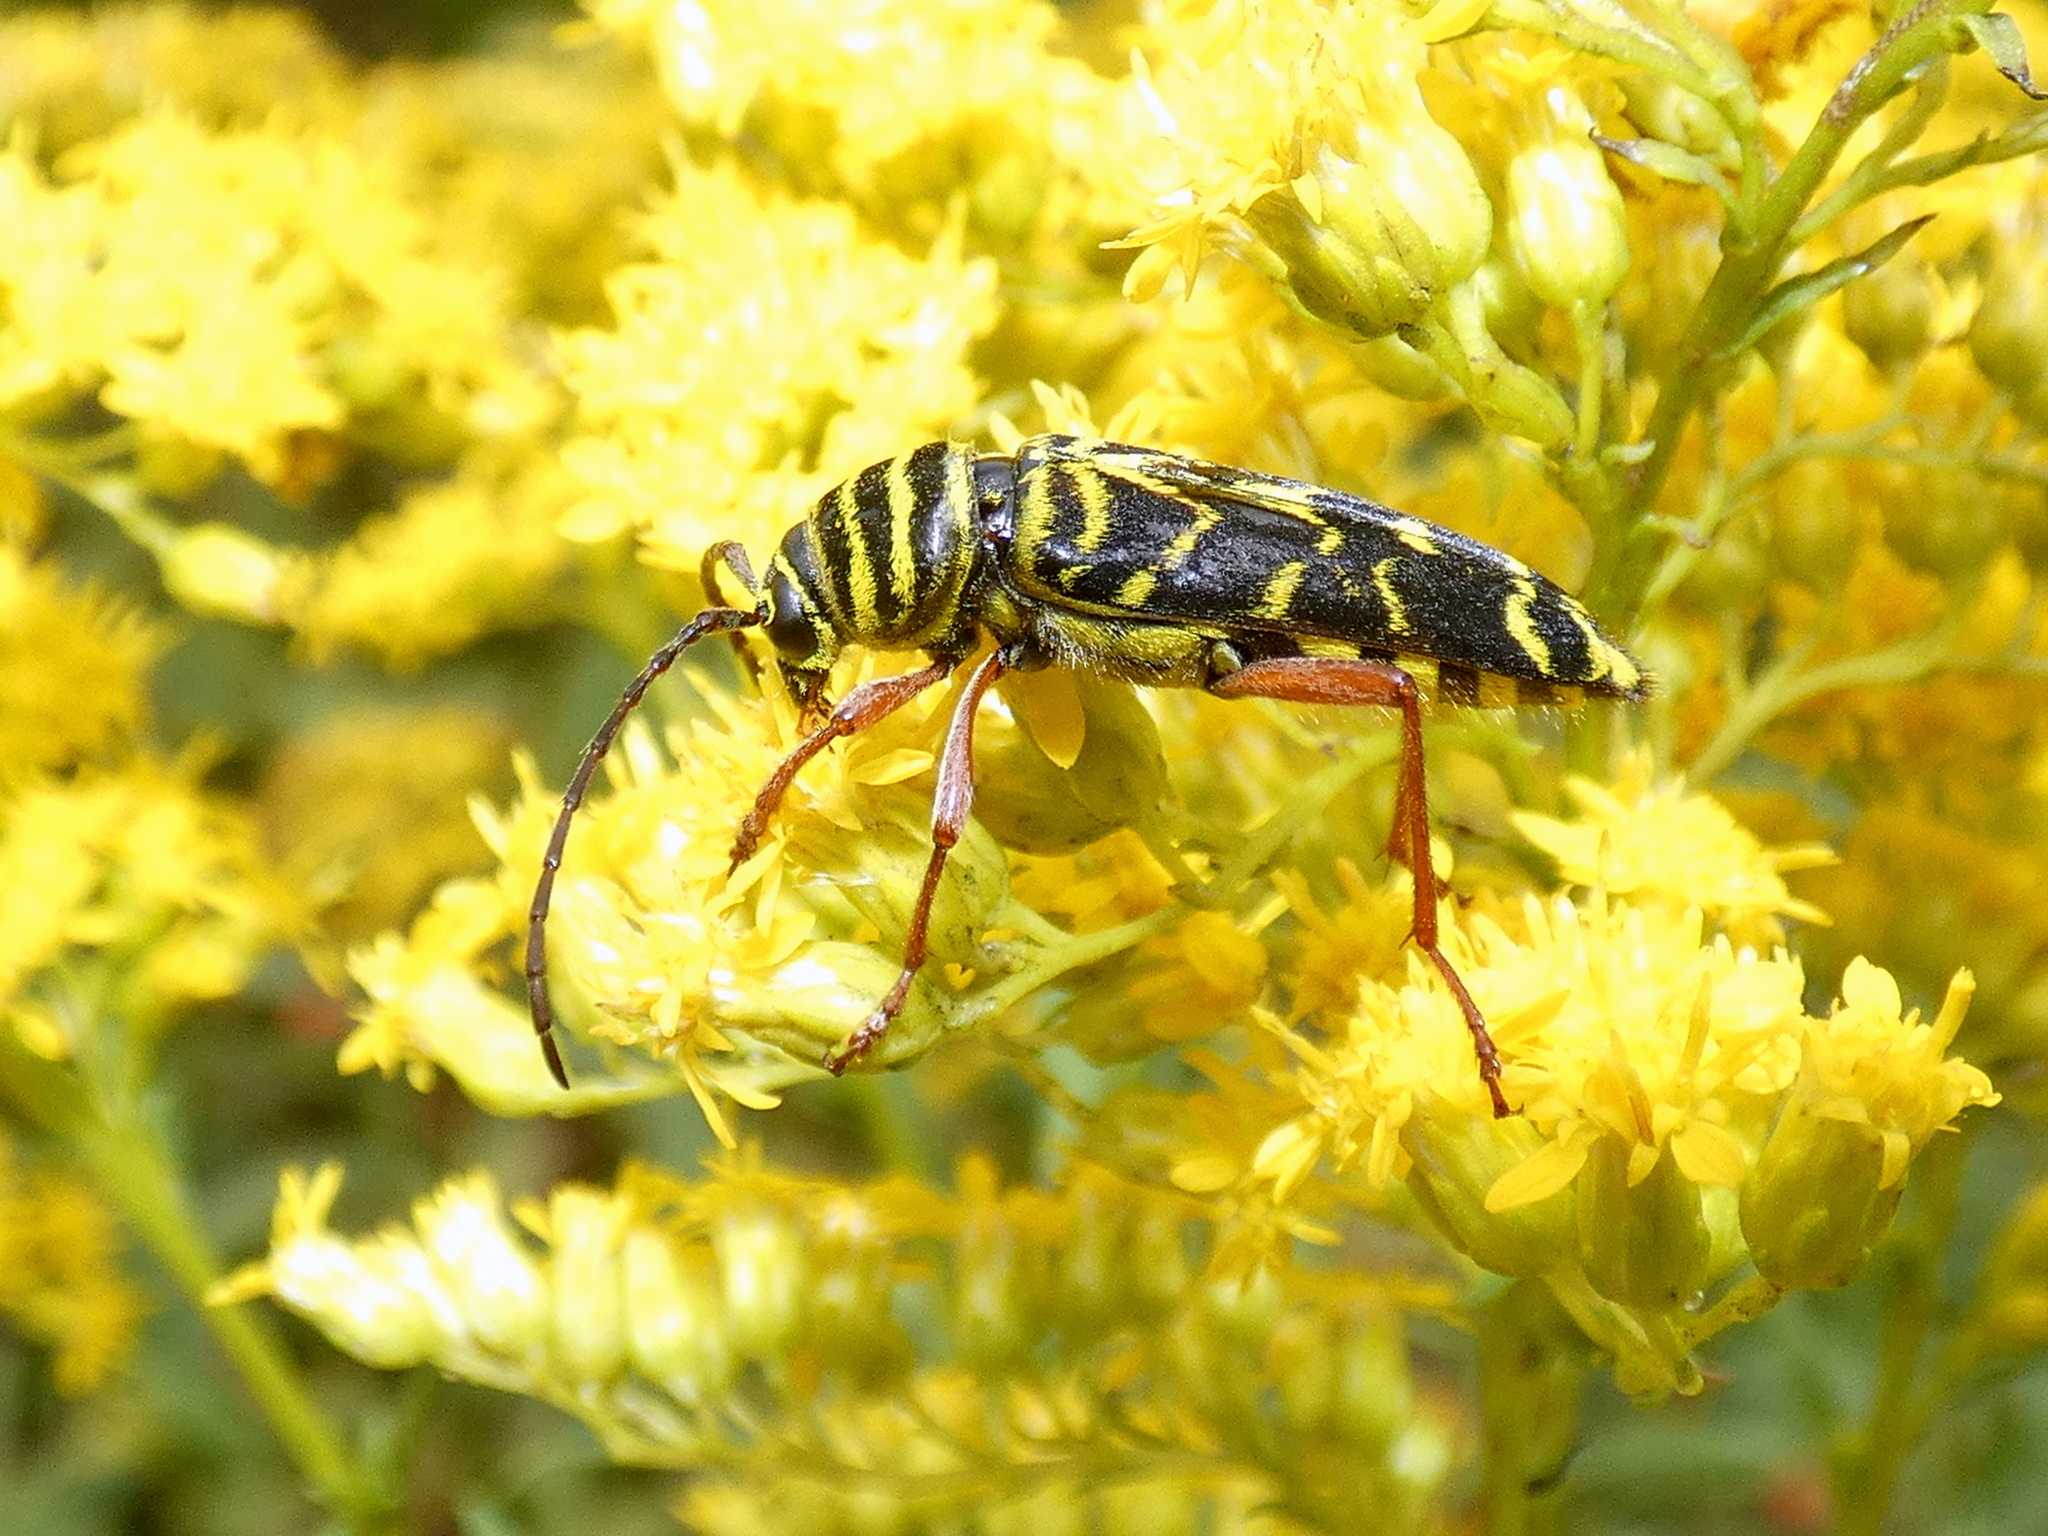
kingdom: Animalia
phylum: Arthropoda
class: Insecta
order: Coleoptera
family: Cerambycidae
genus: Megacyllene
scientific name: Megacyllene robiniae
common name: Locust borer
